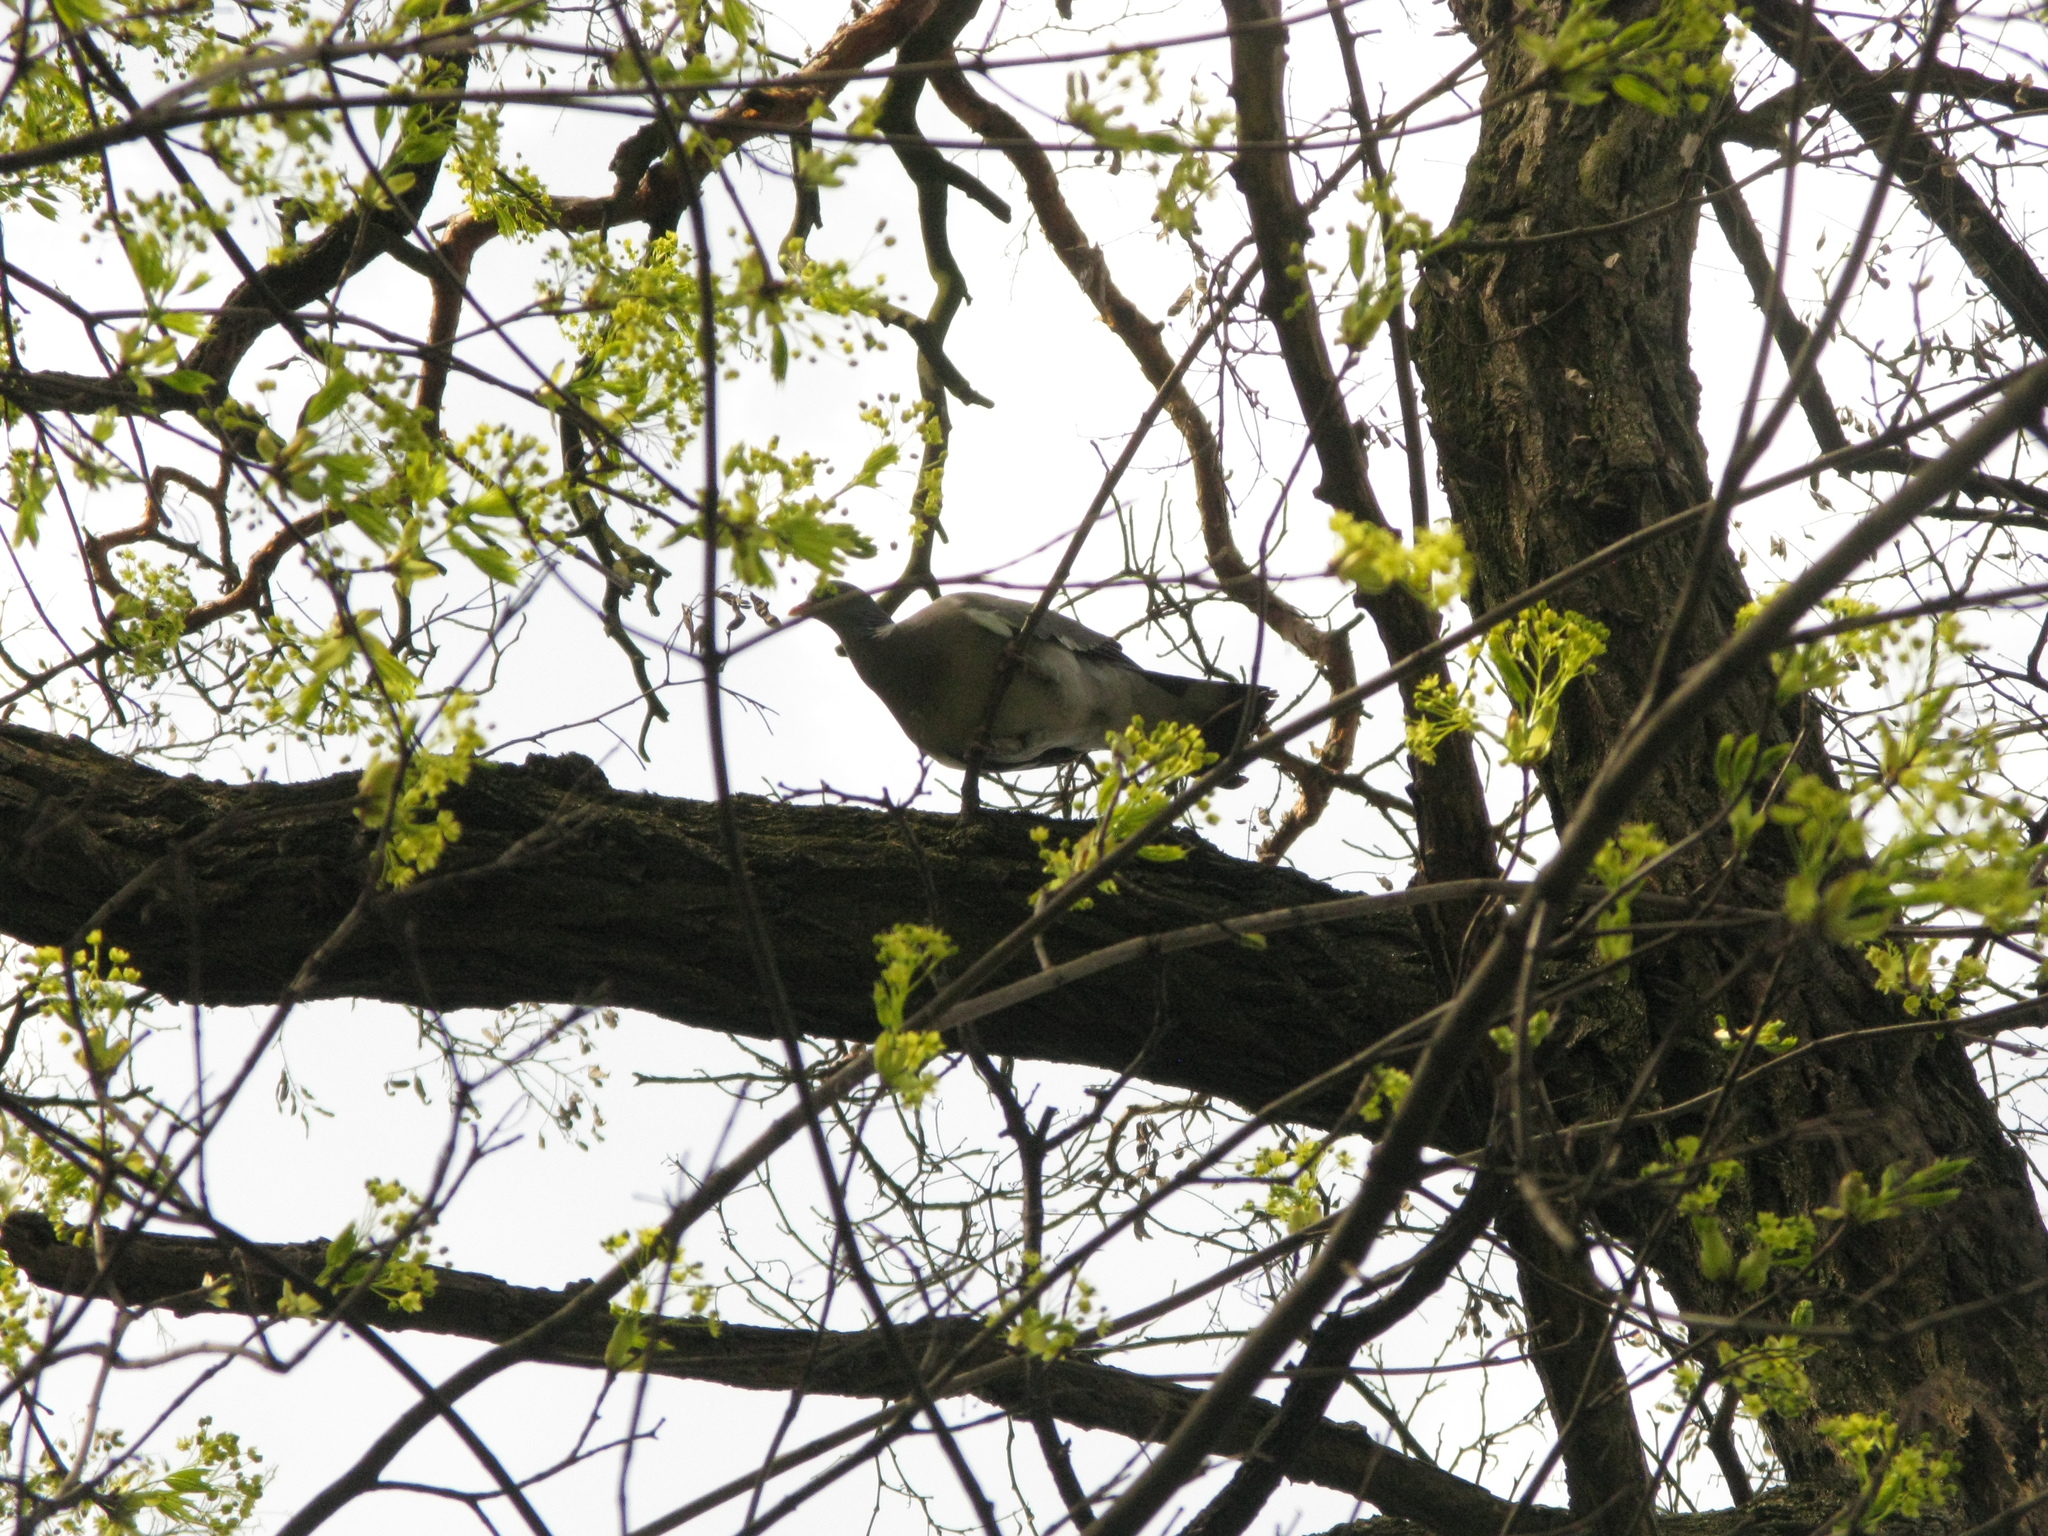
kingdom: Animalia
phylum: Chordata
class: Aves
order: Columbiformes
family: Columbidae
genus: Columba
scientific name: Columba palumbus
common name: Common wood pigeon
